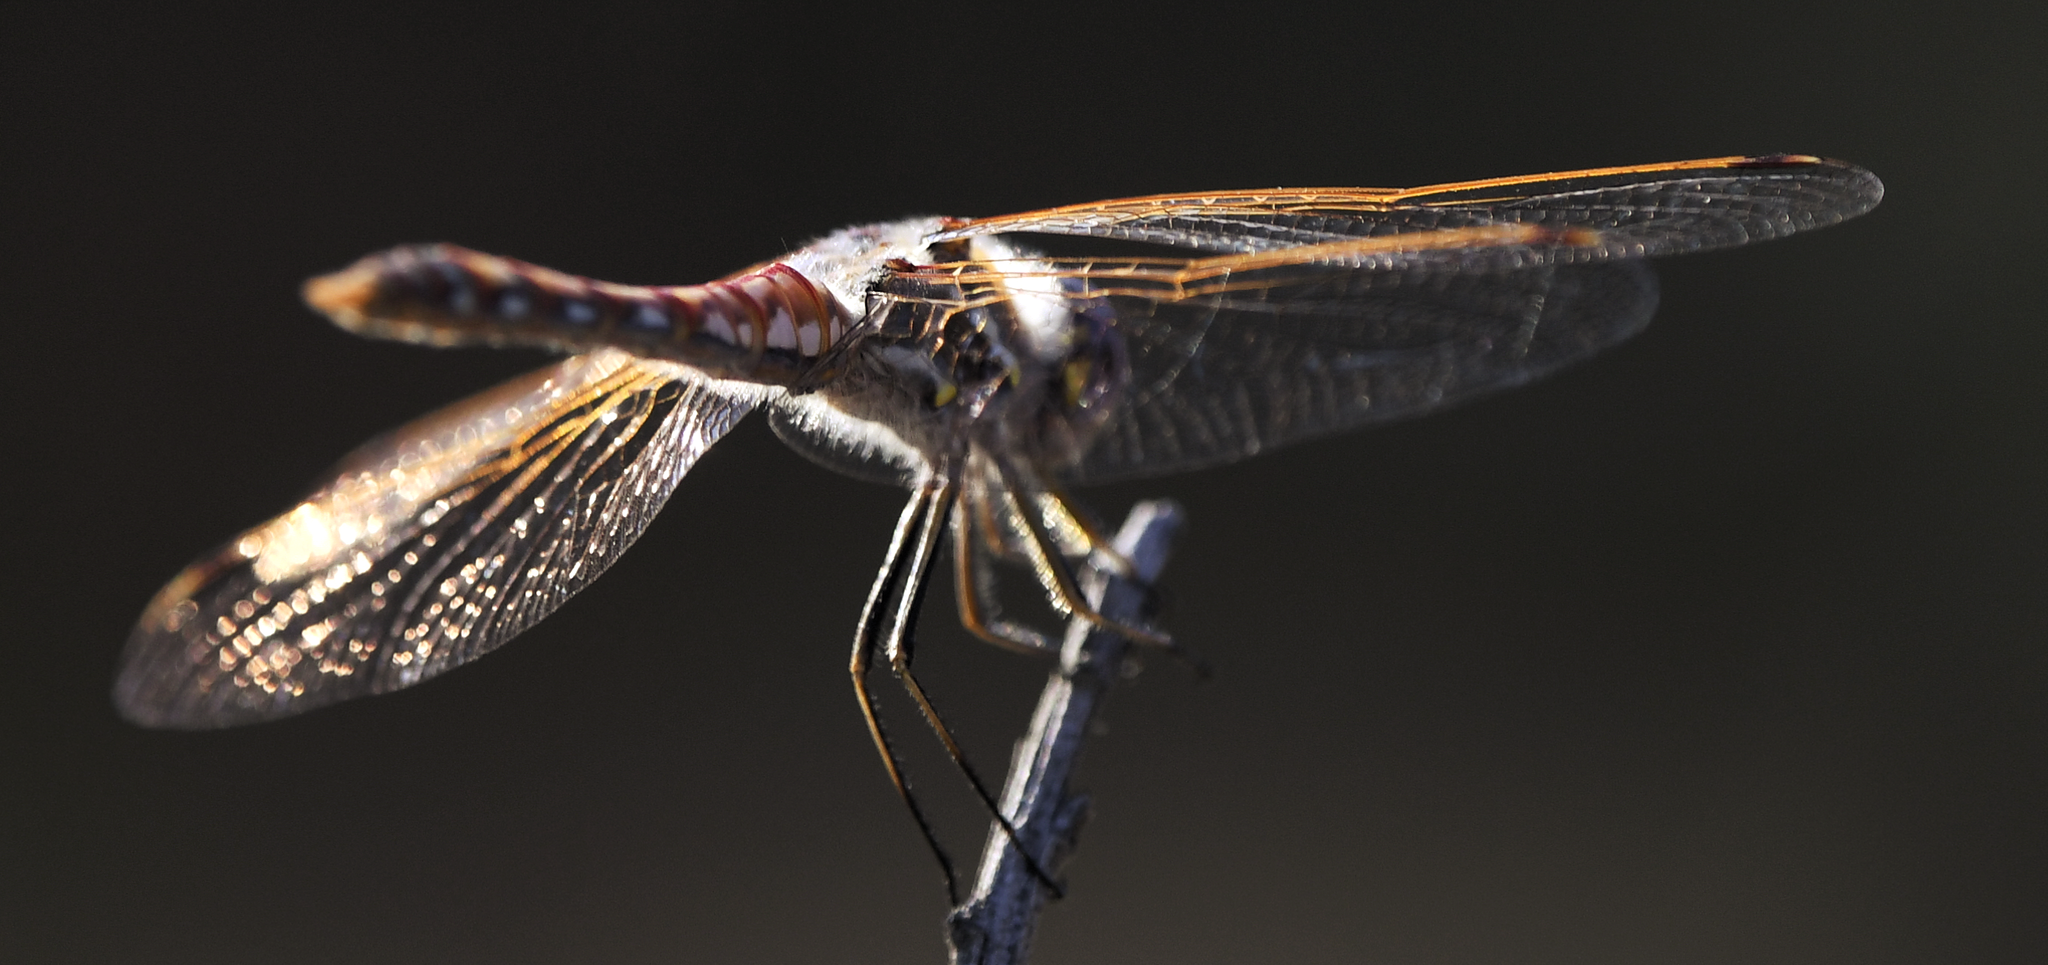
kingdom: Animalia
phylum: Arthropoda
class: Insecta
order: Odonata
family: Libellulidae
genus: Sympetrum
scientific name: Sympetrum corruptum
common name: Variegated meadowhawk
